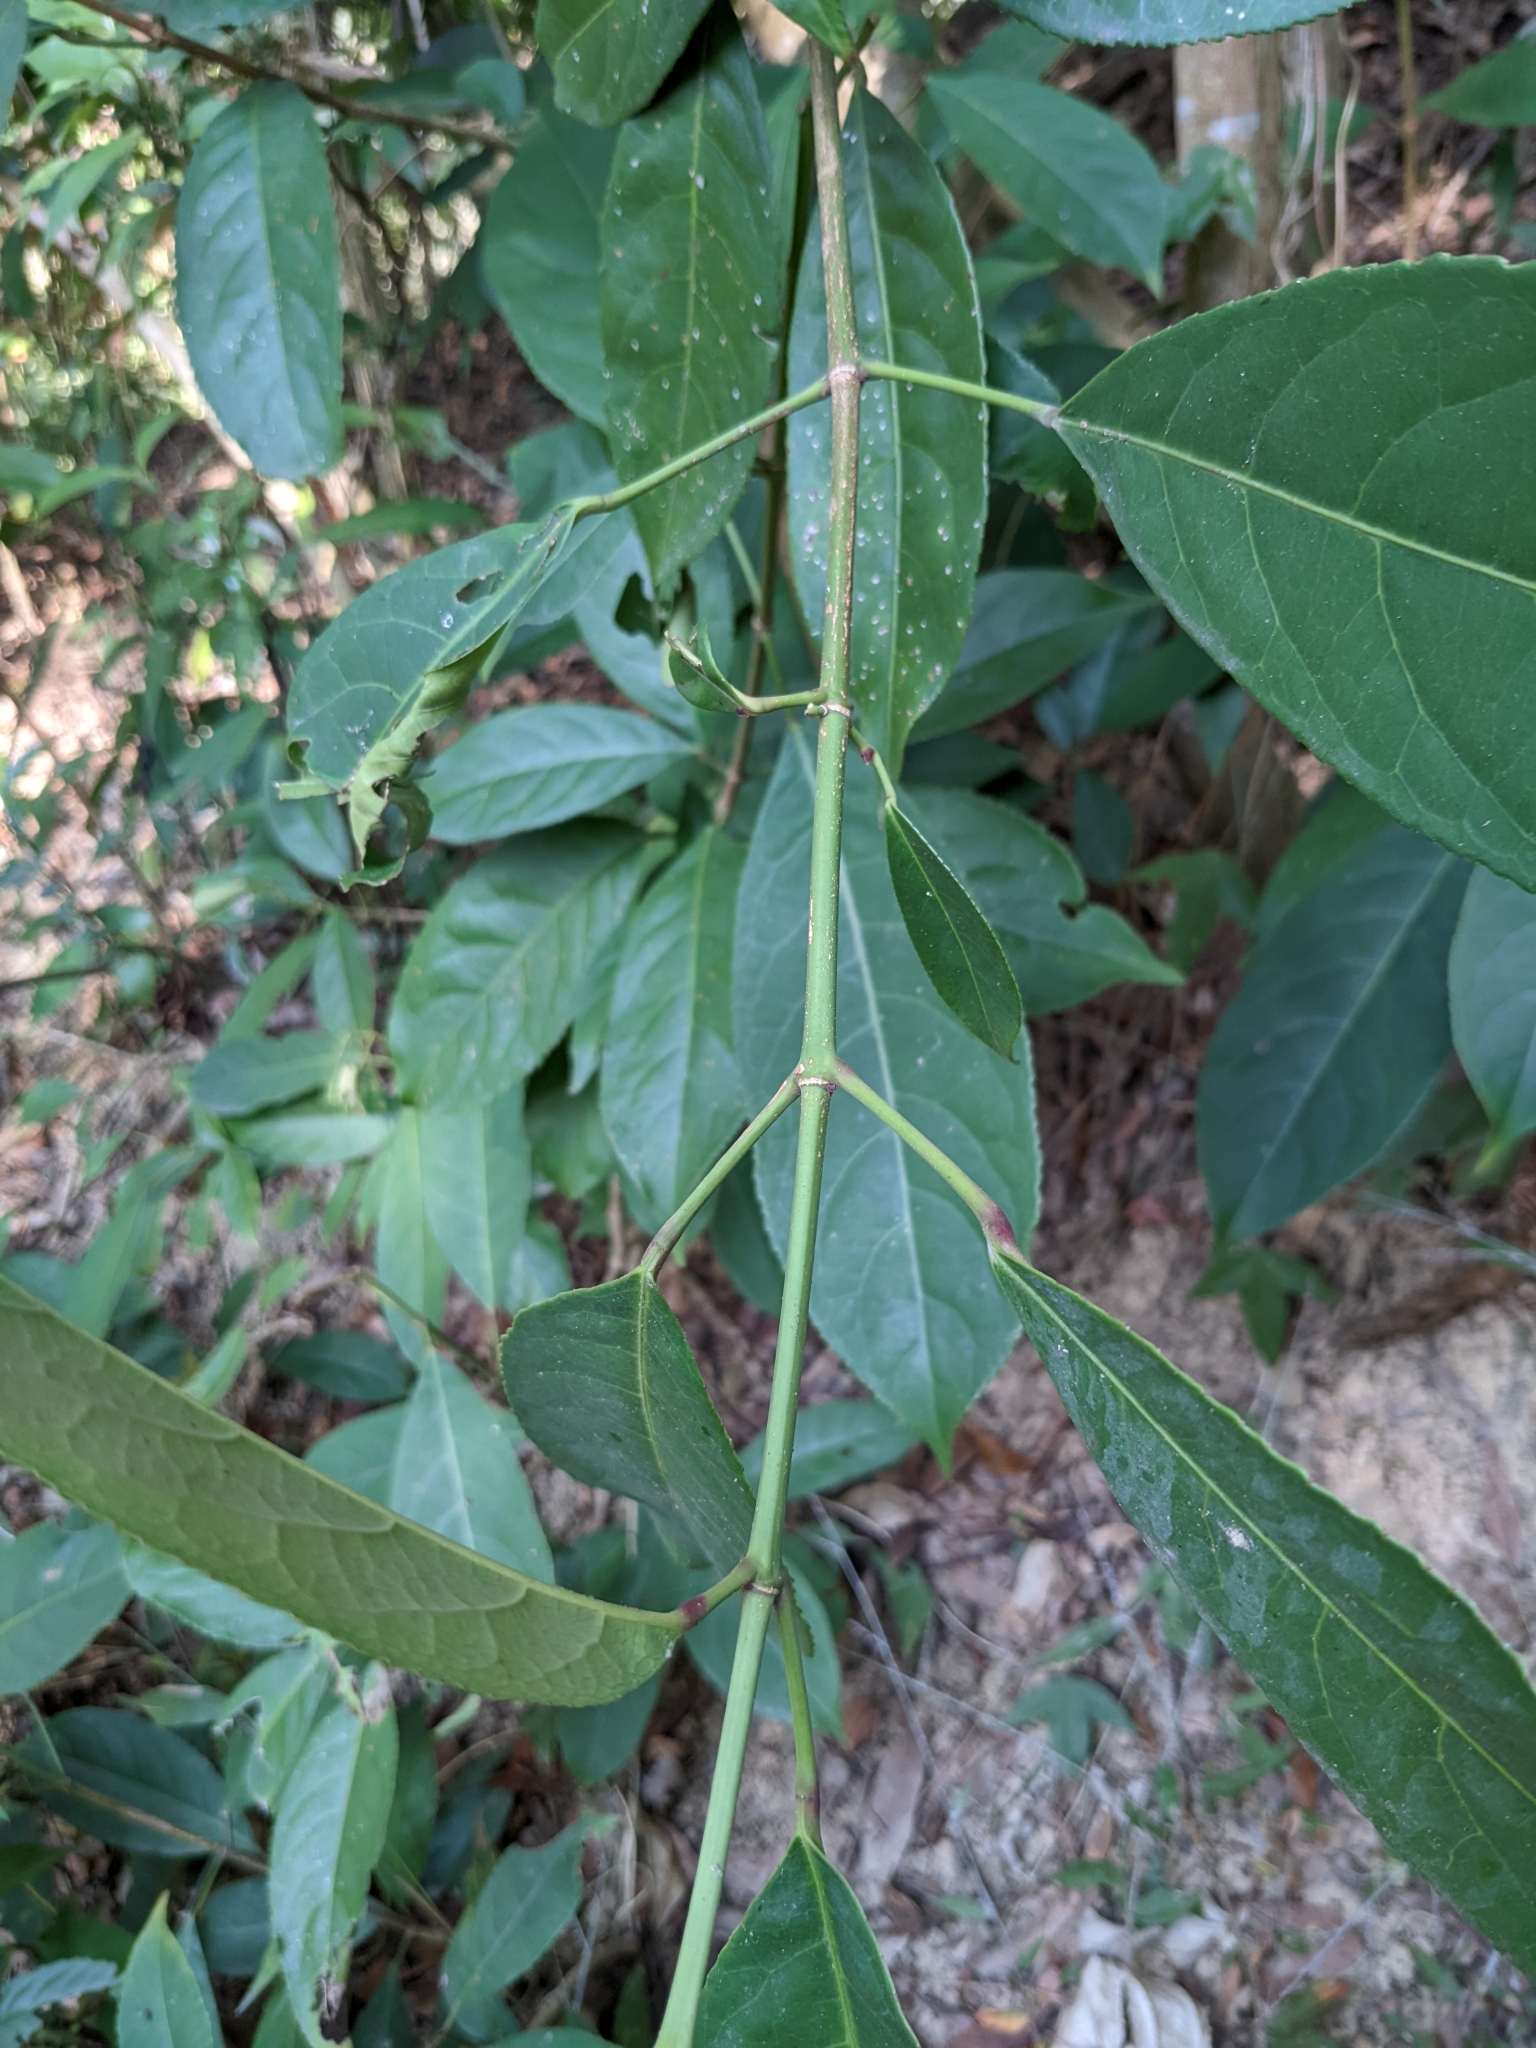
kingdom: Plantae
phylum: Tracheophyta
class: Magnoliopsida
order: Crossosomatales
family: Staphyleaceae
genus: Turpinia
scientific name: Turpinia formosana
